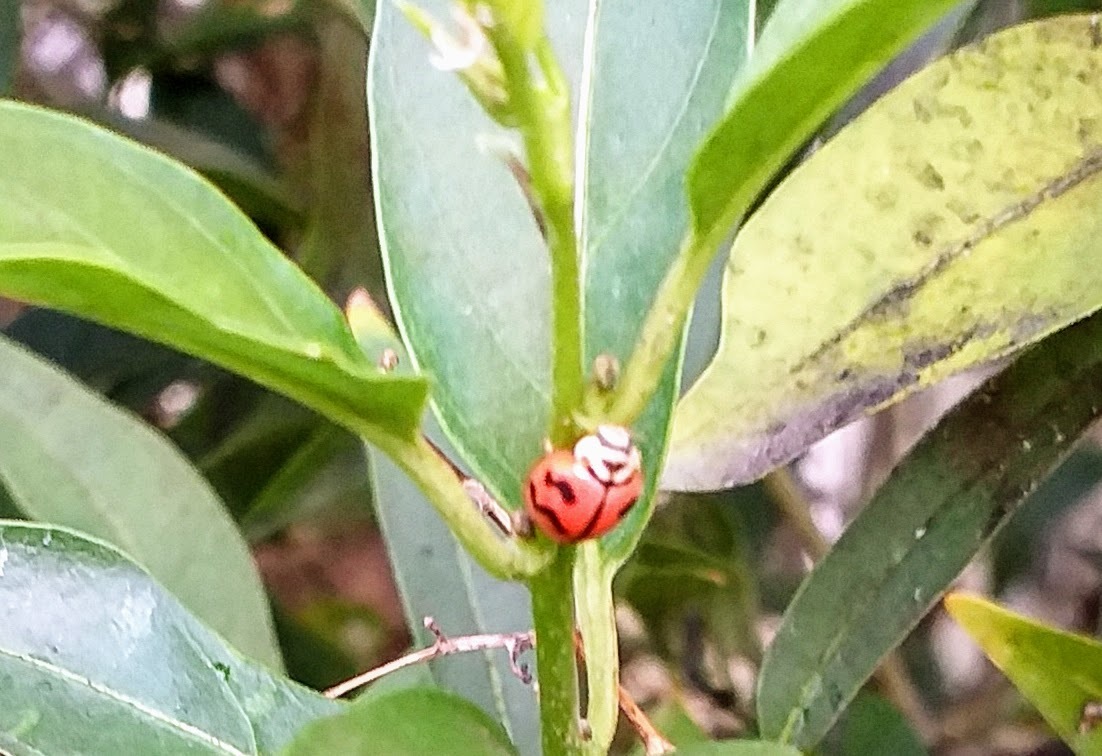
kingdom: Animalia
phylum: Arthropoda
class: Insecta
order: Coleoptera
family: Coccinellidae
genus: Cheilomenes
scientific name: Cheilomenes sexmaculata
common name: Ladybird beetle
